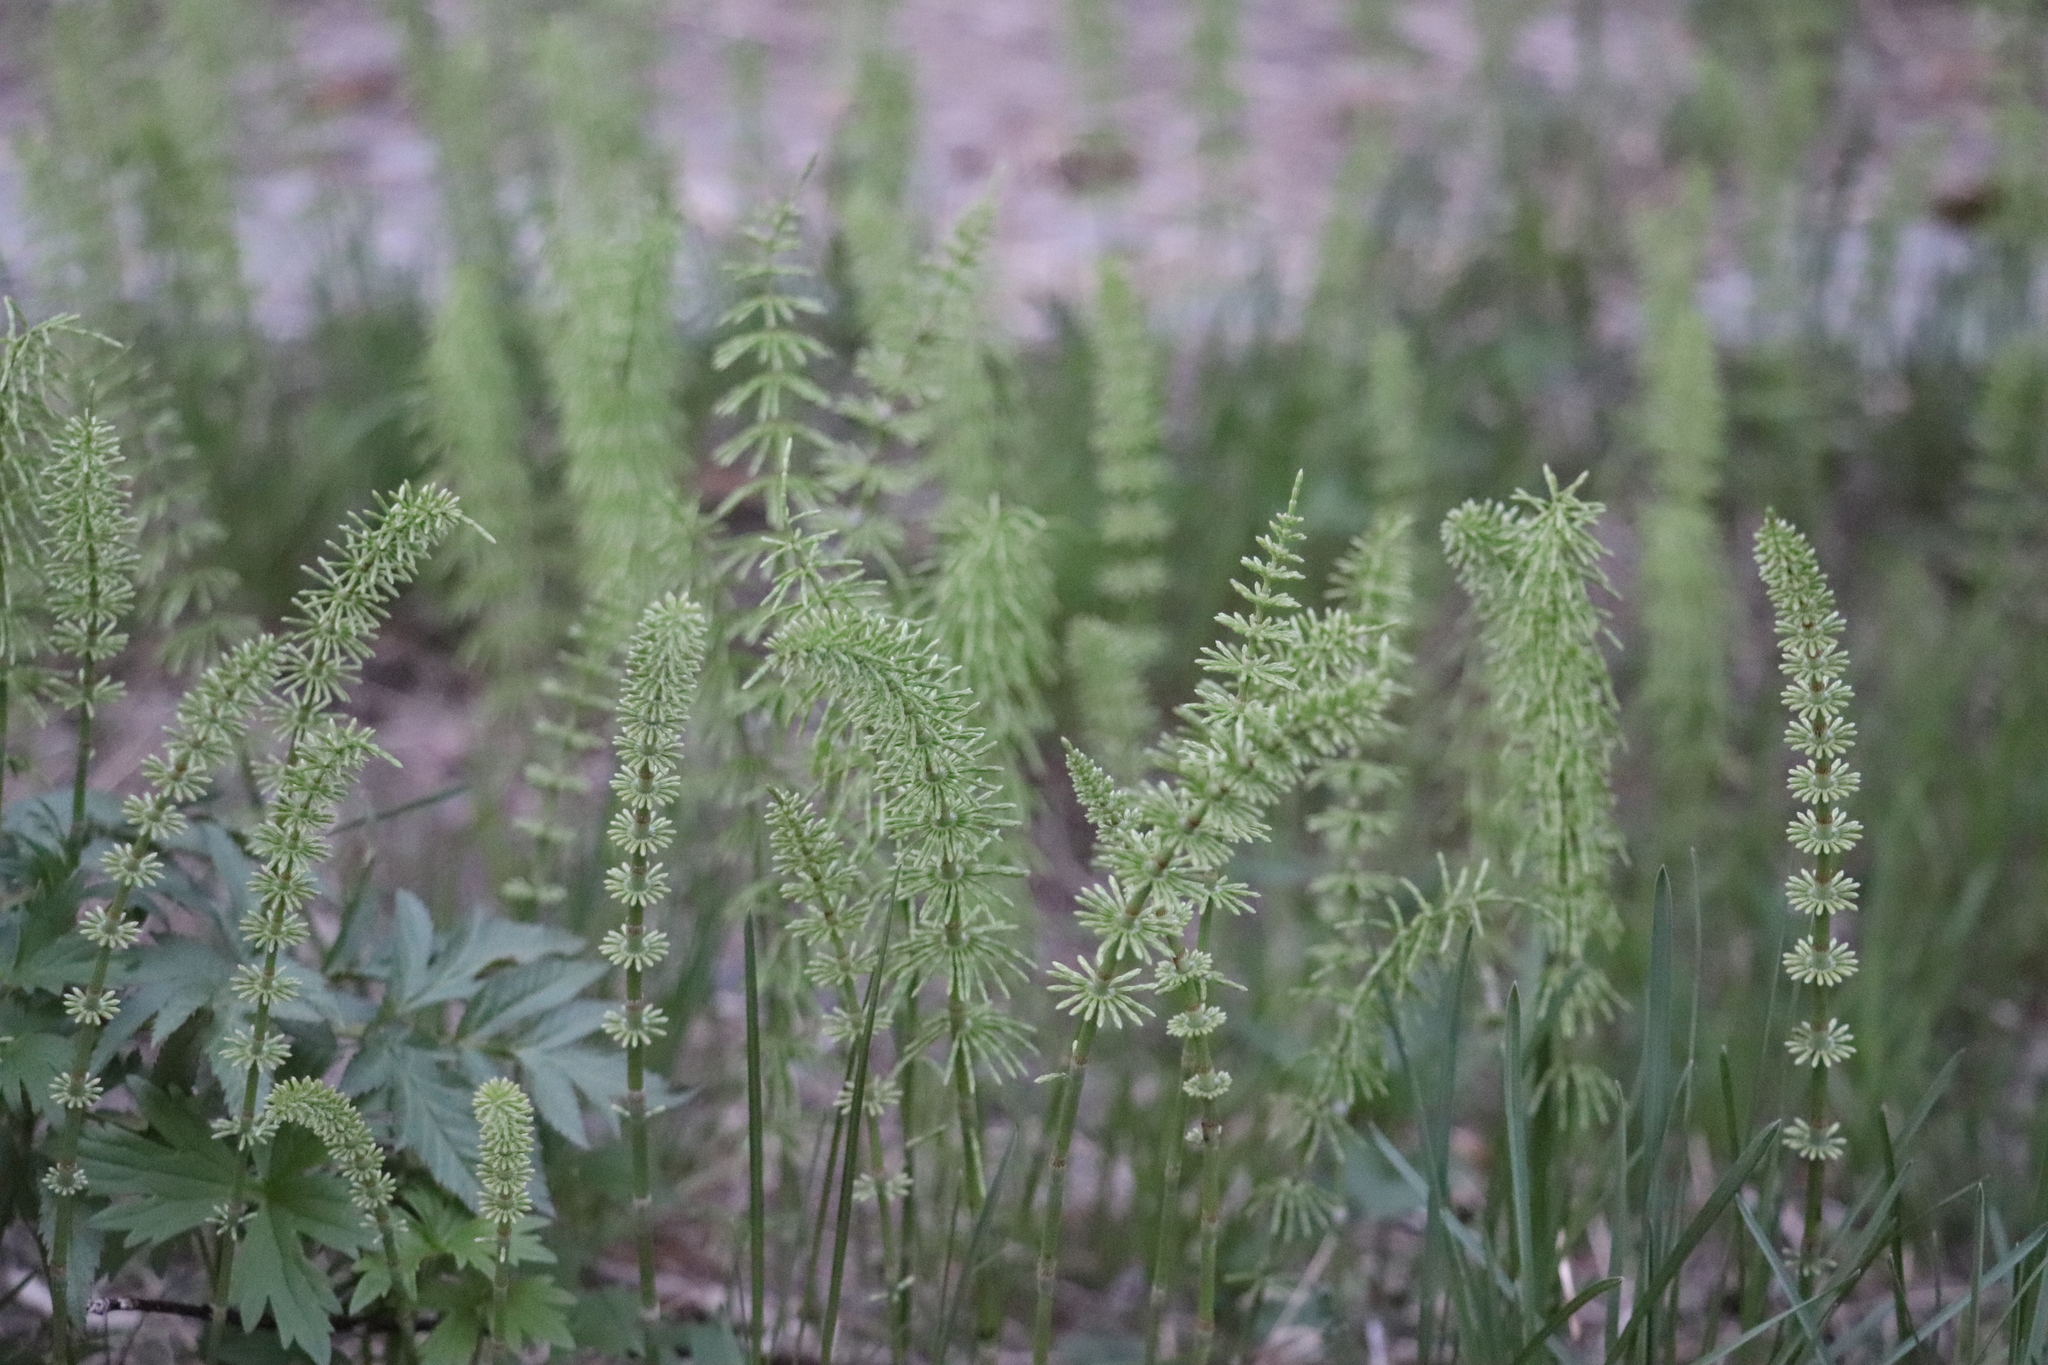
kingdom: Plantae
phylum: Tracheophyta
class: Polypodiopsida
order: Equisetales
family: Equisetaceae
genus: Equisetum
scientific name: Equisetum arvense
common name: Field horsetail
